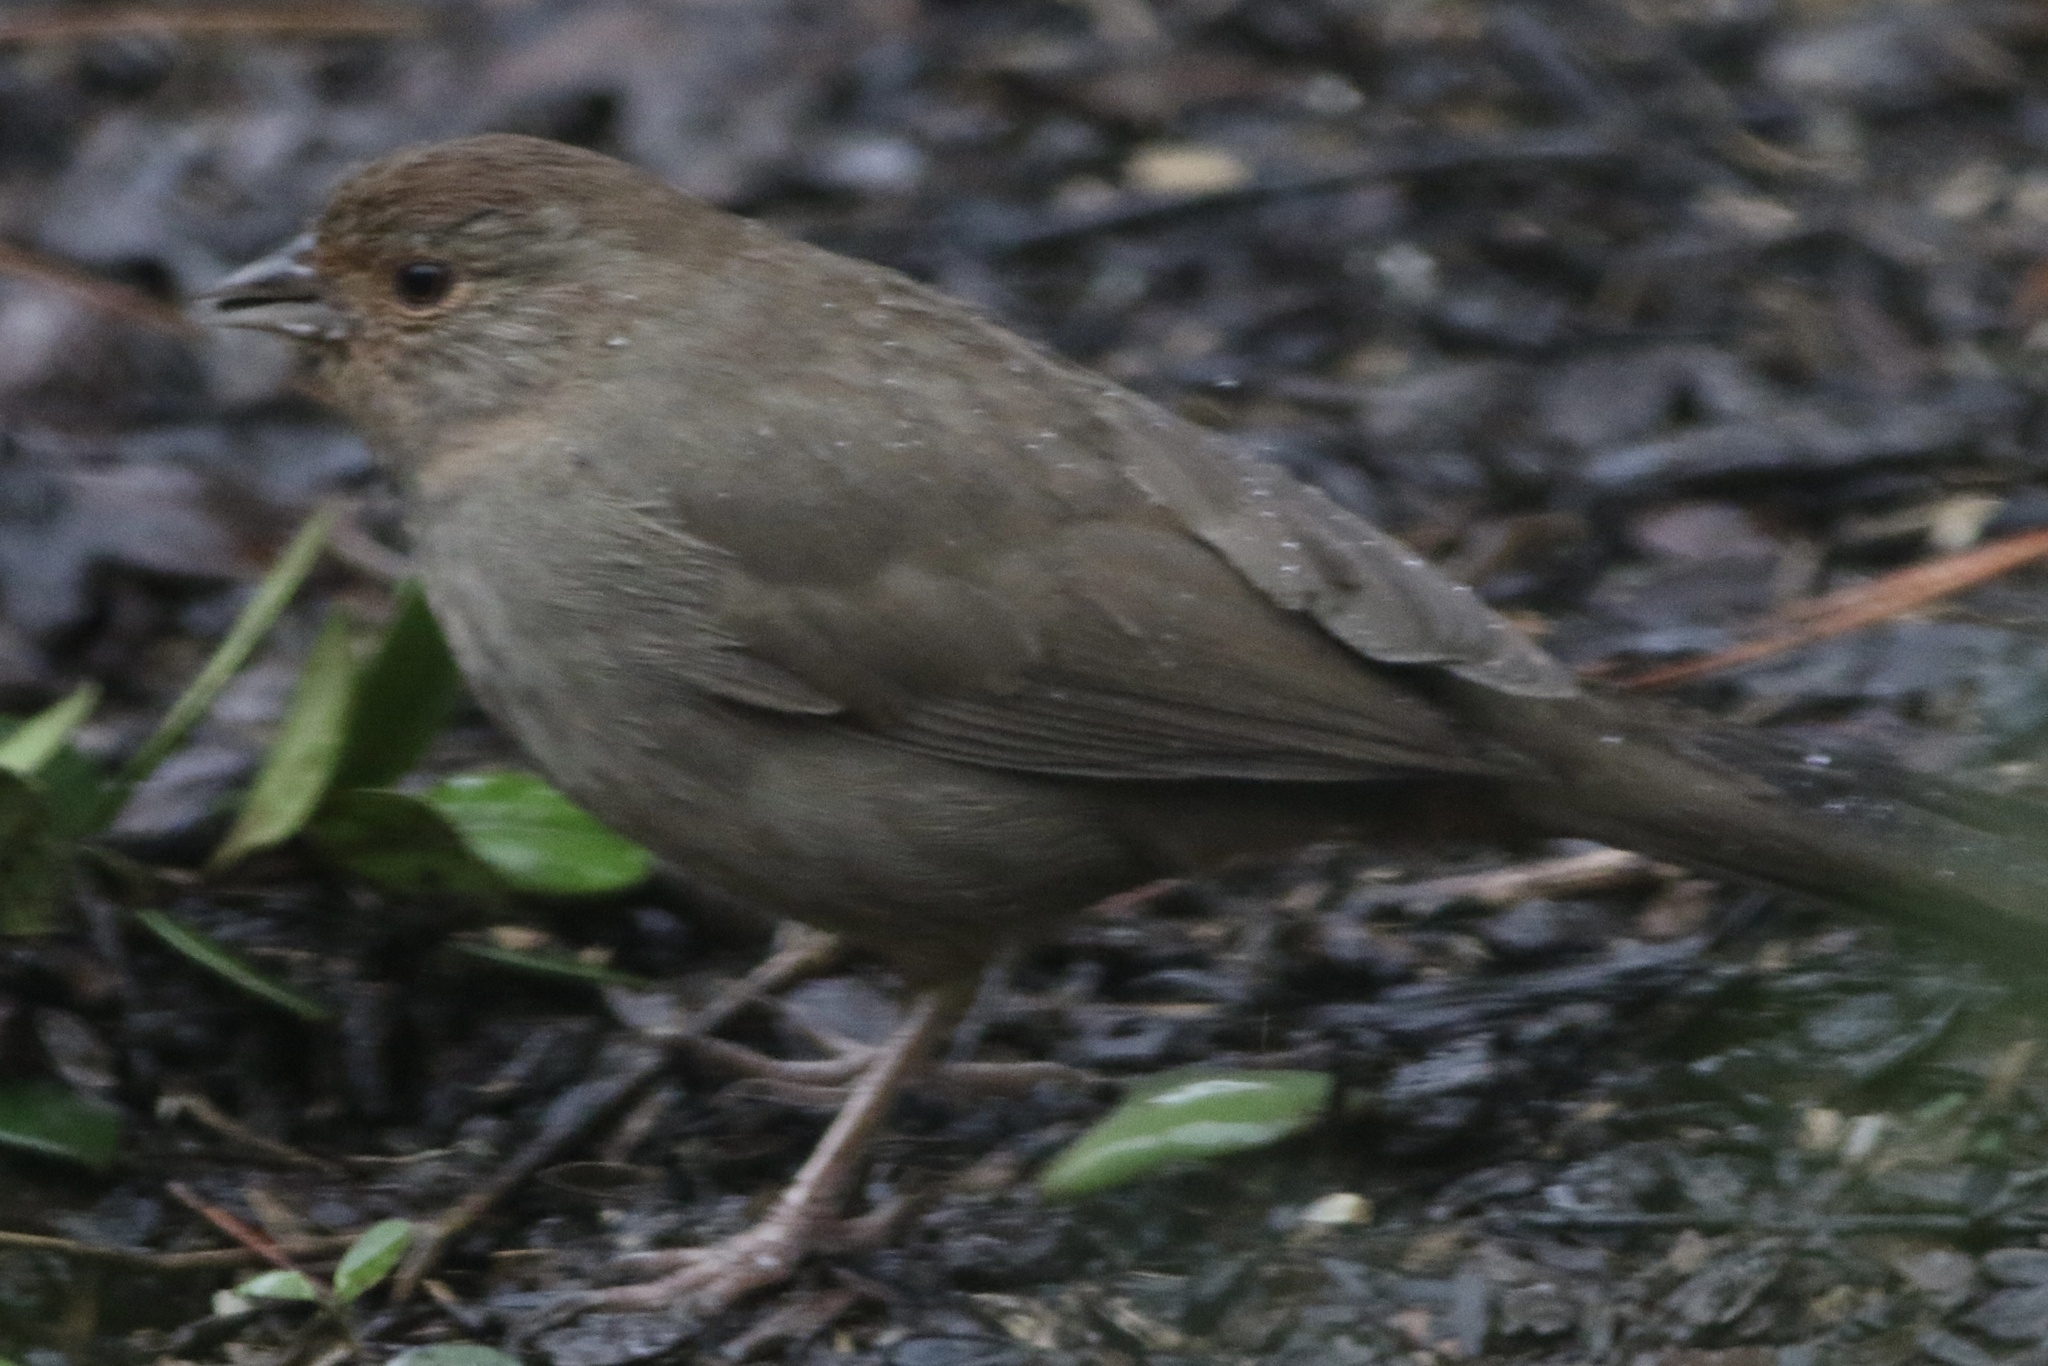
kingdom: Animalia
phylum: Chordata
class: Aves
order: Passeriformes
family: Passerellidae
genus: Melozone
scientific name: Melozone crissalis
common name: California towhee
